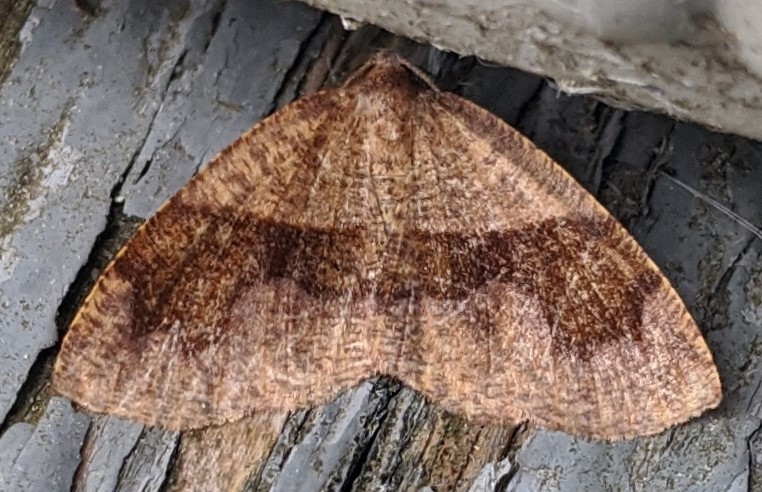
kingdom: Animalia
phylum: Arthropoda
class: Insecta
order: Lepidoptera
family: Geometridae
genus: Plagodis
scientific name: Plagodis pulveraria
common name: Barred umber
